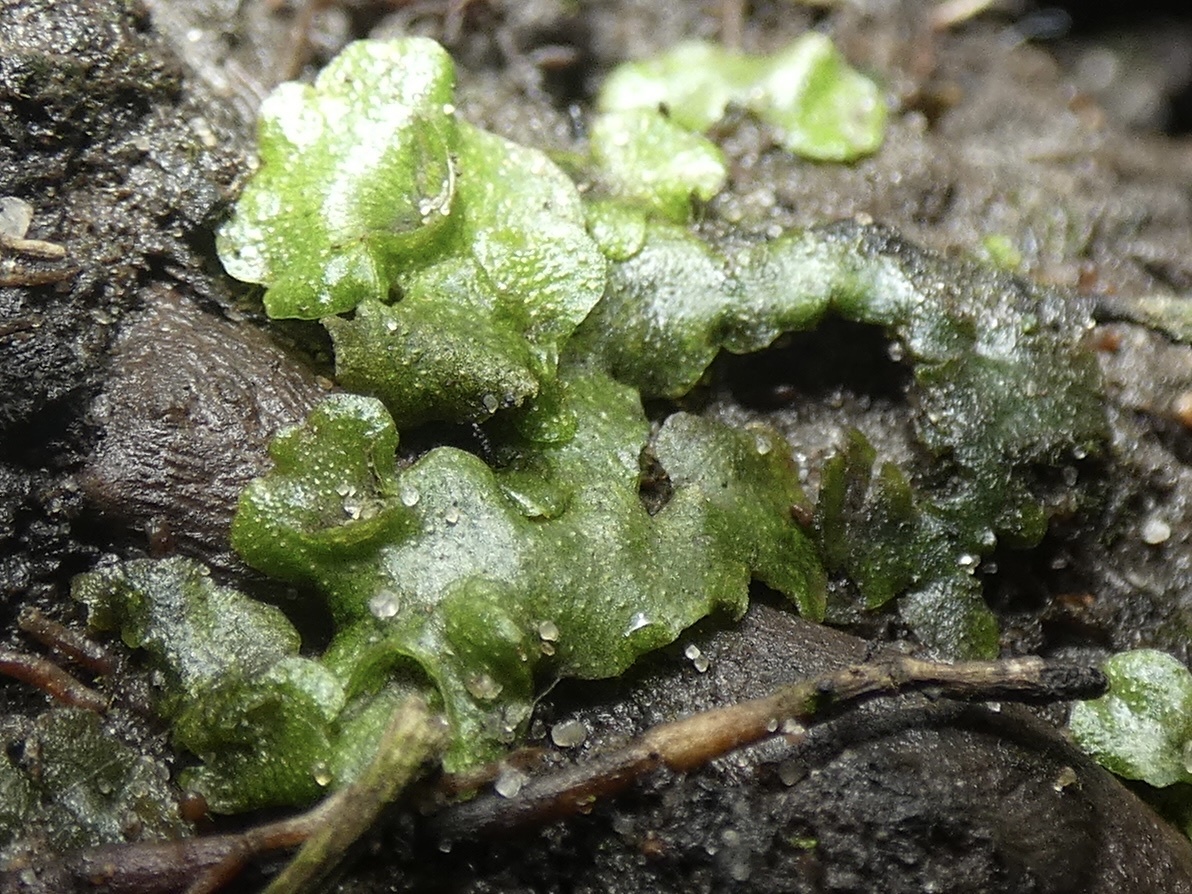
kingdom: Plantae
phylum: Marchantiophyta
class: Marchantiopsida
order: Lunulariales
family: Lunulariaceae
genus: Lunularia
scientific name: Lunularia cruciata
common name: Crescent-cup liverwort
